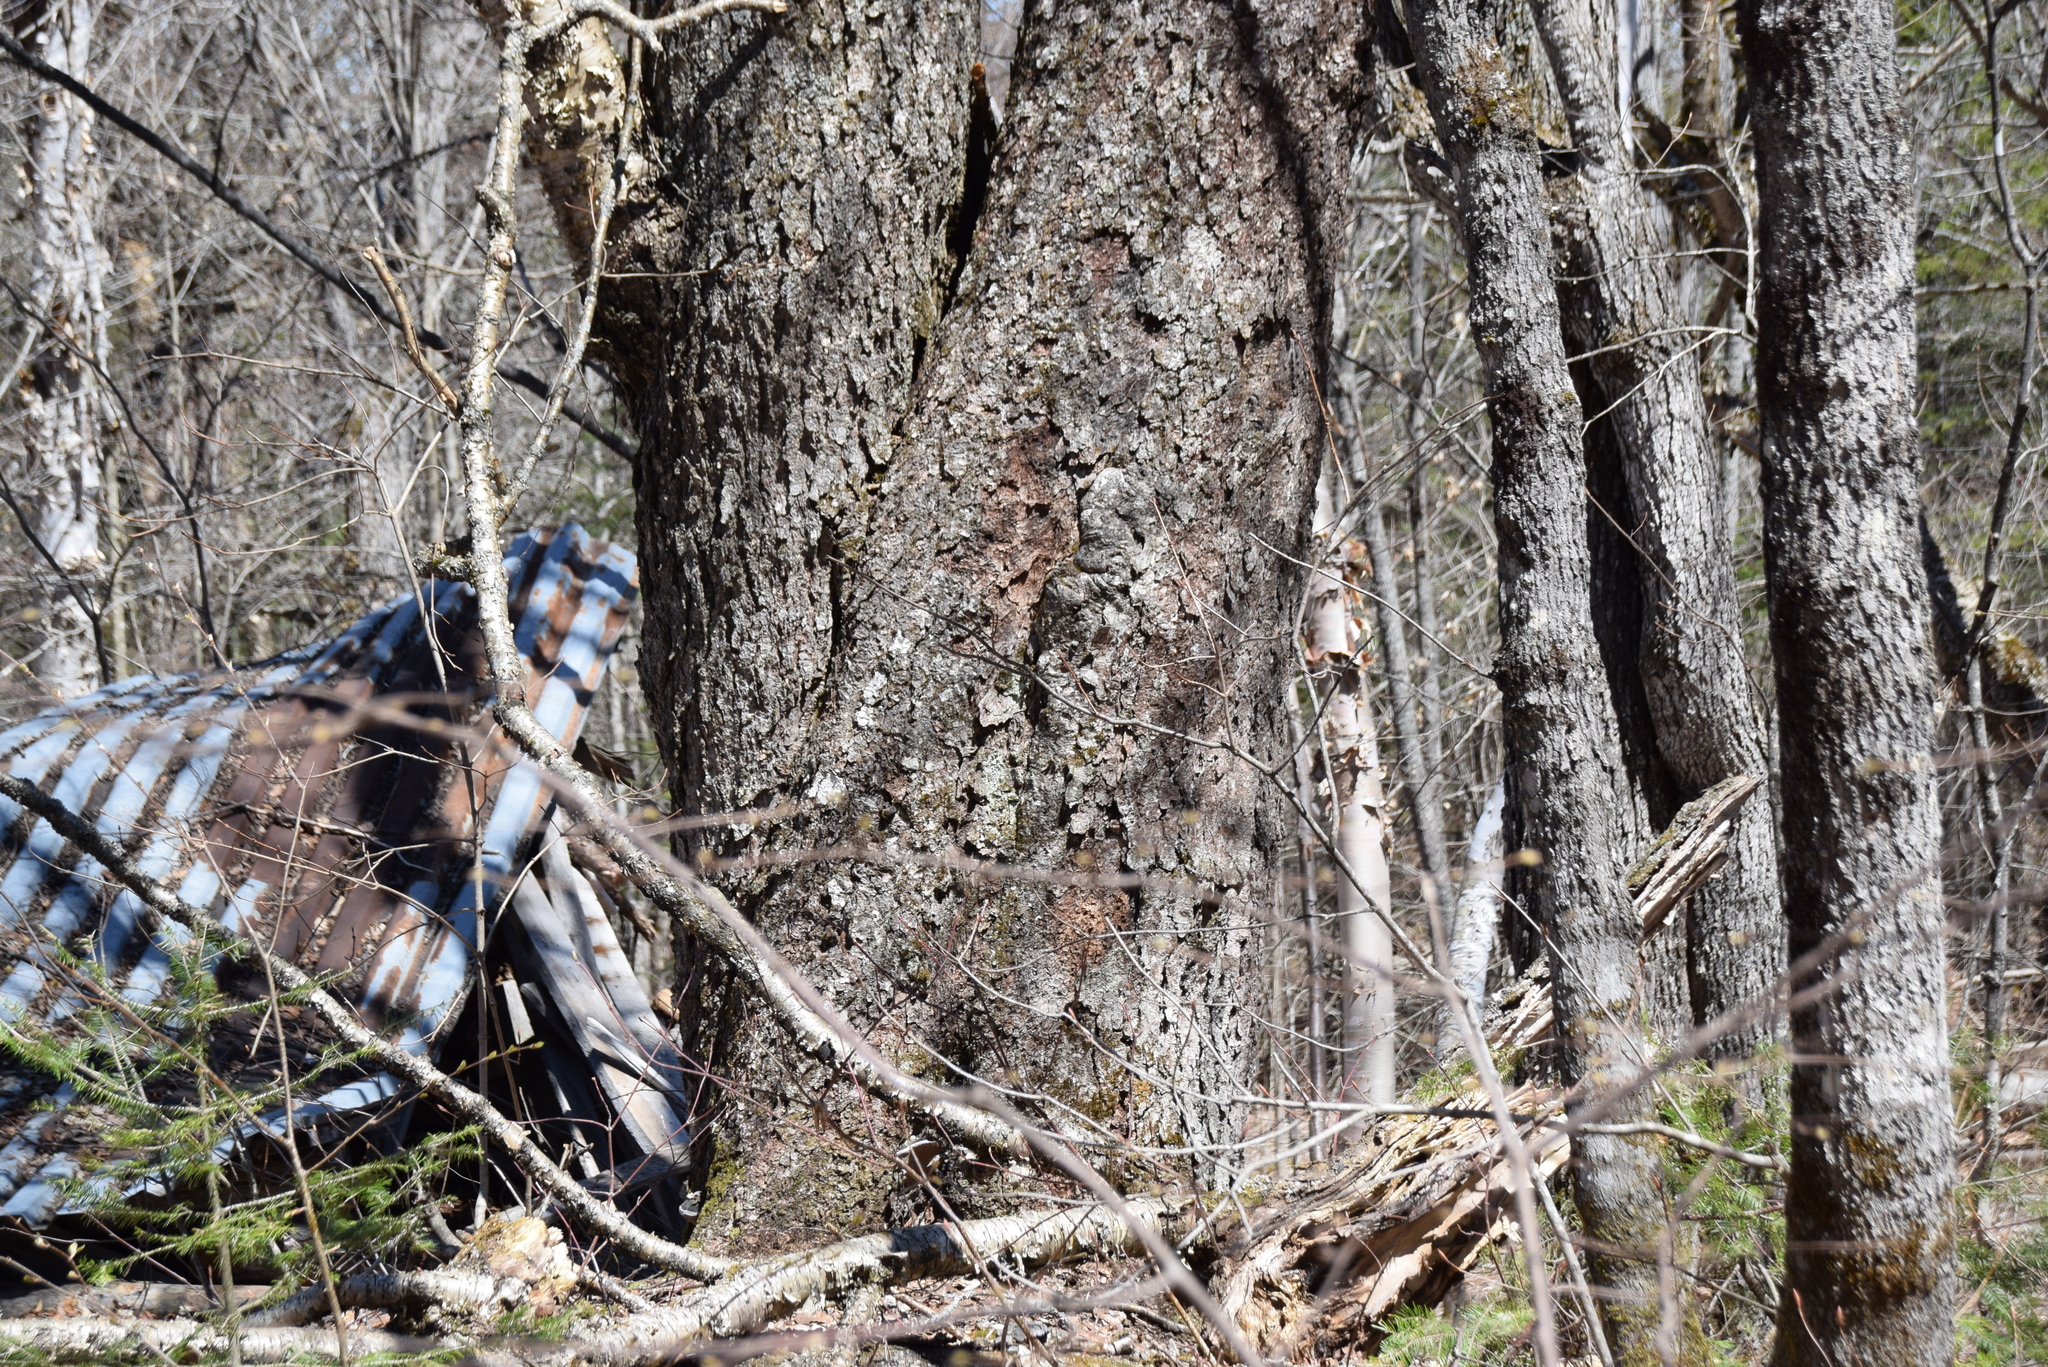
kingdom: Plantae
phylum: Tracheophyta
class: Magnoliopsida
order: Fagales
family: Betulaceae
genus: Betula
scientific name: Betula alleghaniensis
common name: Yellow birch
